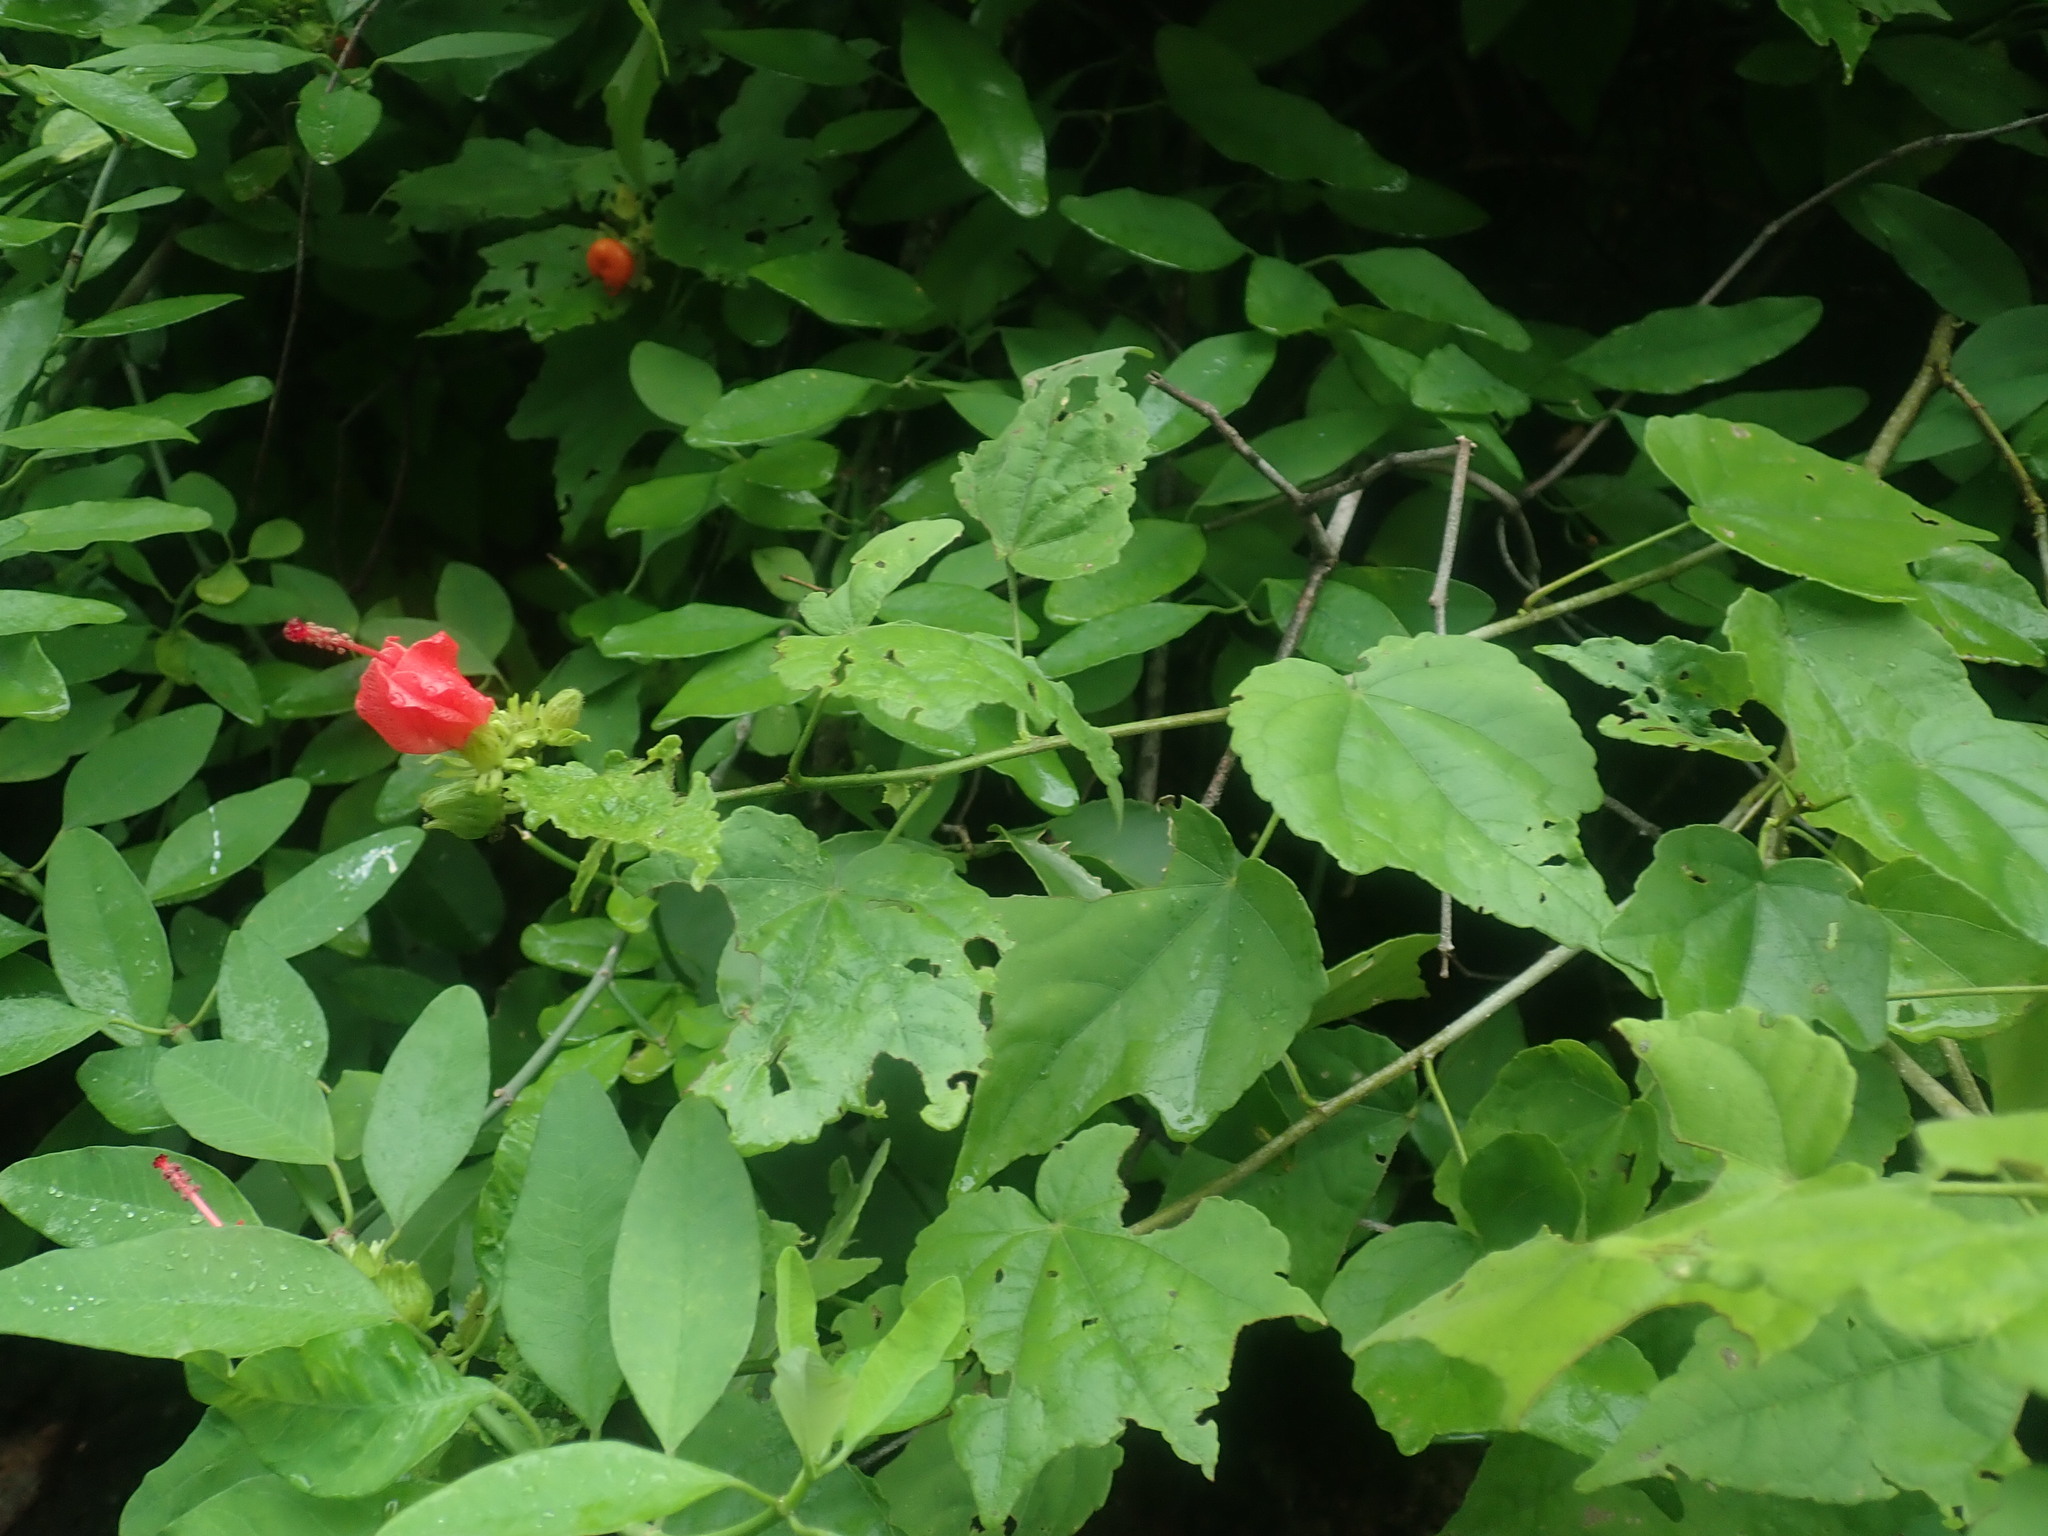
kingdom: Plantae
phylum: Tracheophyta
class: Magnoliopsida
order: Malvales
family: Malvaceae
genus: Malvaviscus
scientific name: Malvaviscus arboreus
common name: Wax mallow
